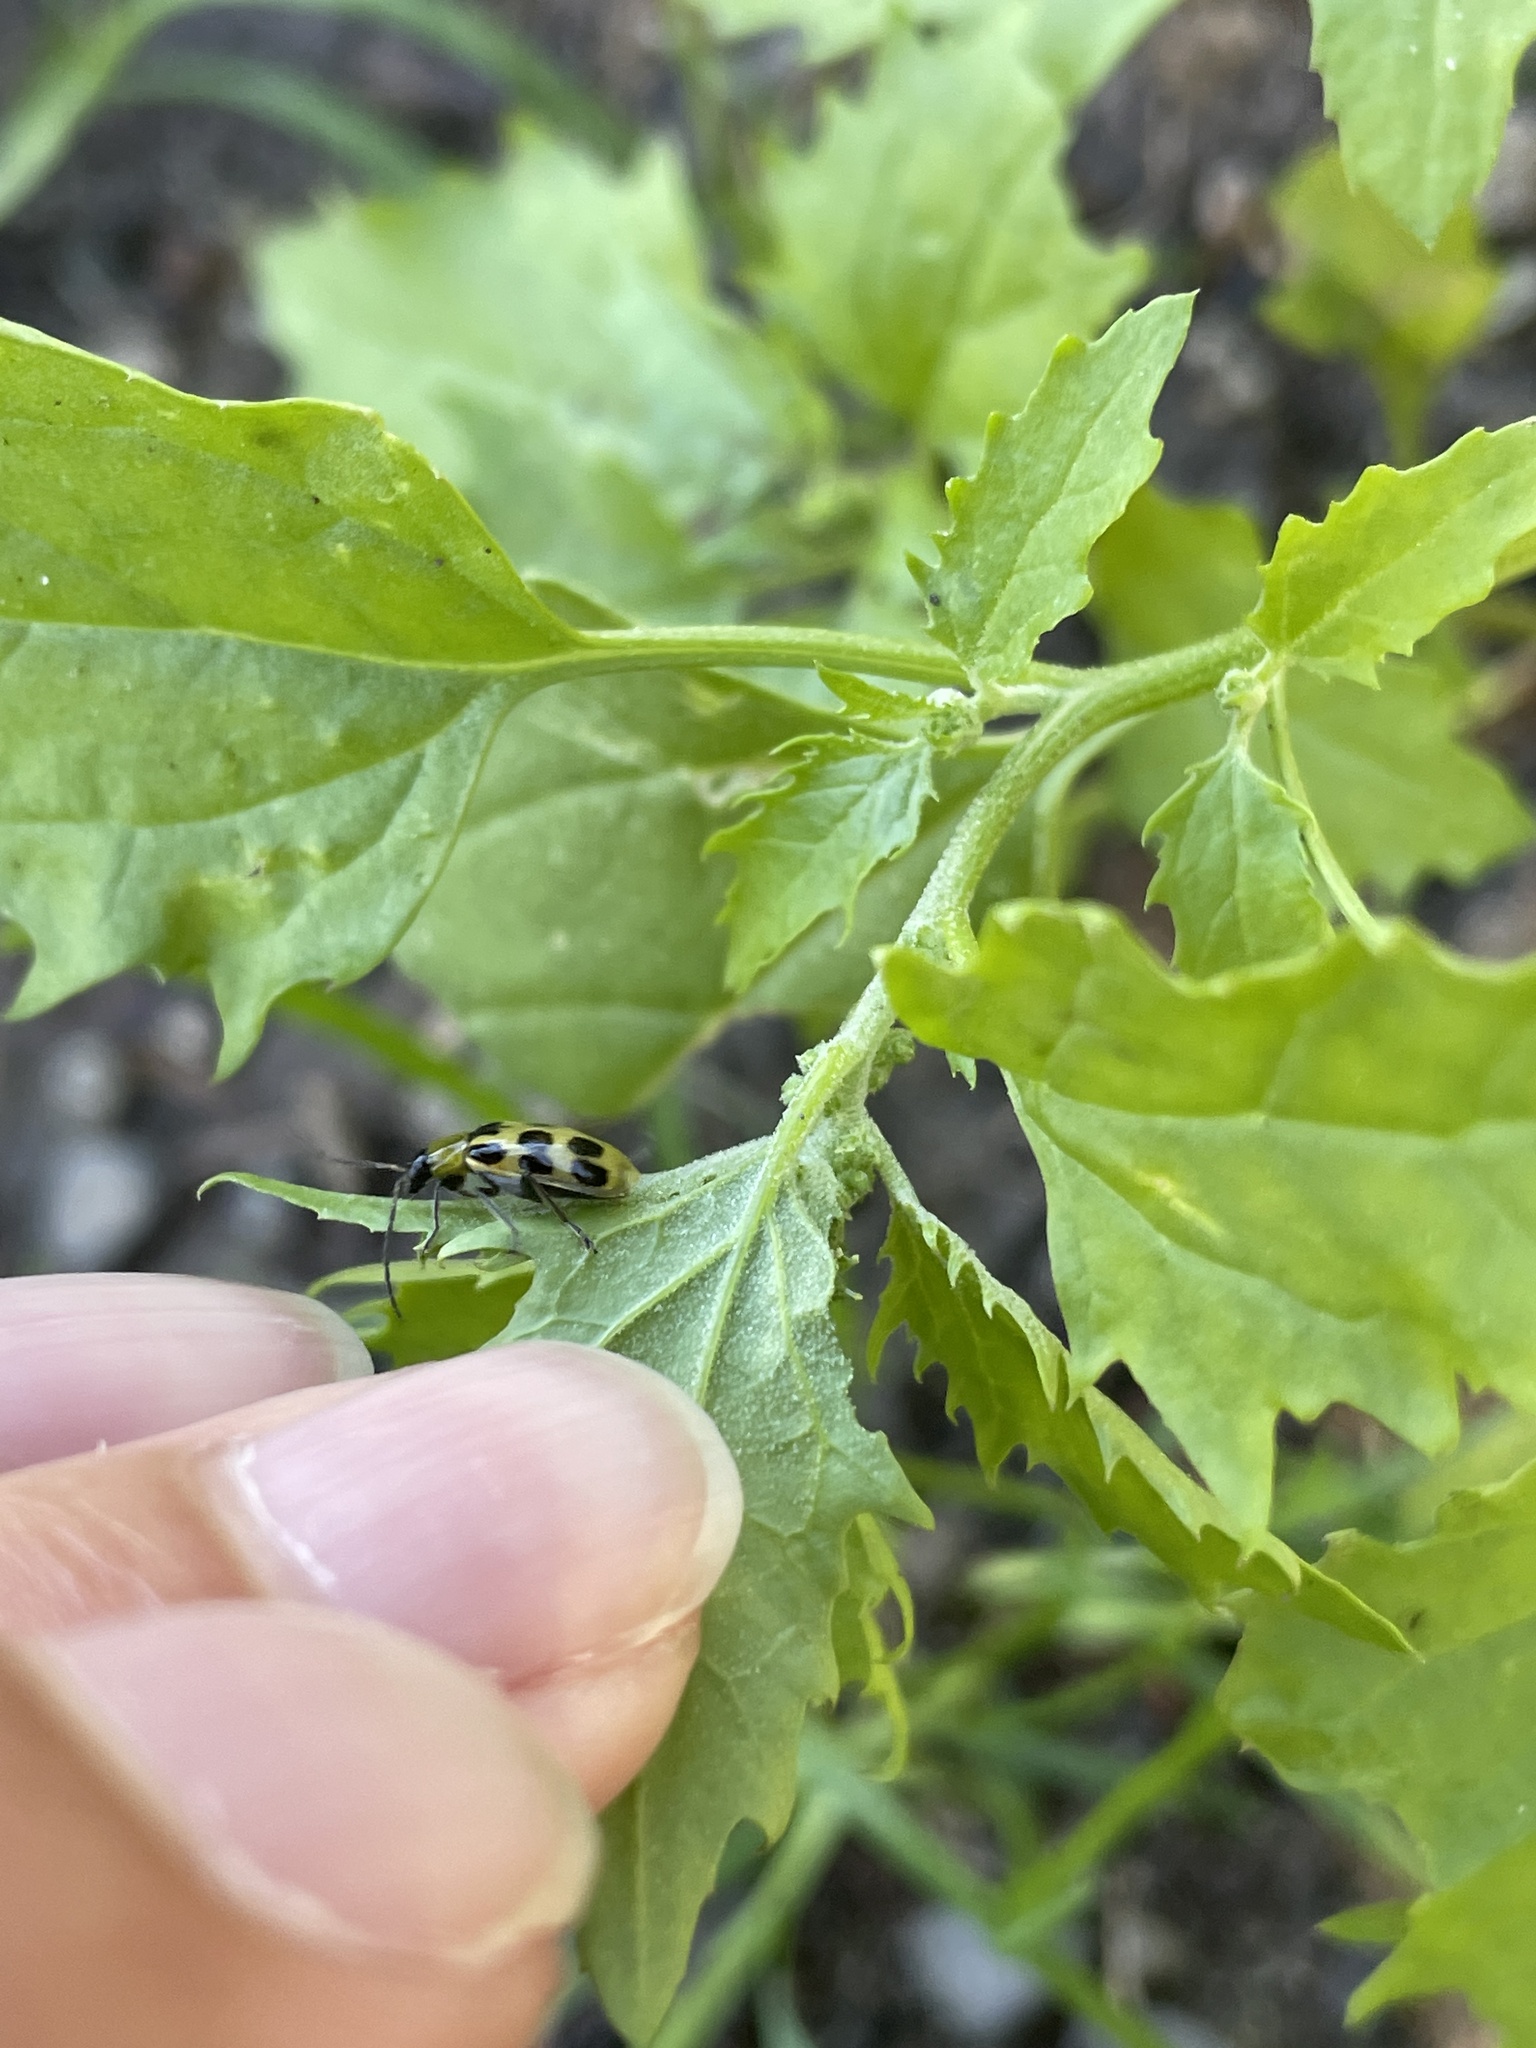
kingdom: Animalia
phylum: Arthropoda
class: Insecta
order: Coleoptera
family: Chrysomelidae
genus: Diabrotica
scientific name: Diabrotica undecimpunctata
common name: Spotted cucumber beetle
